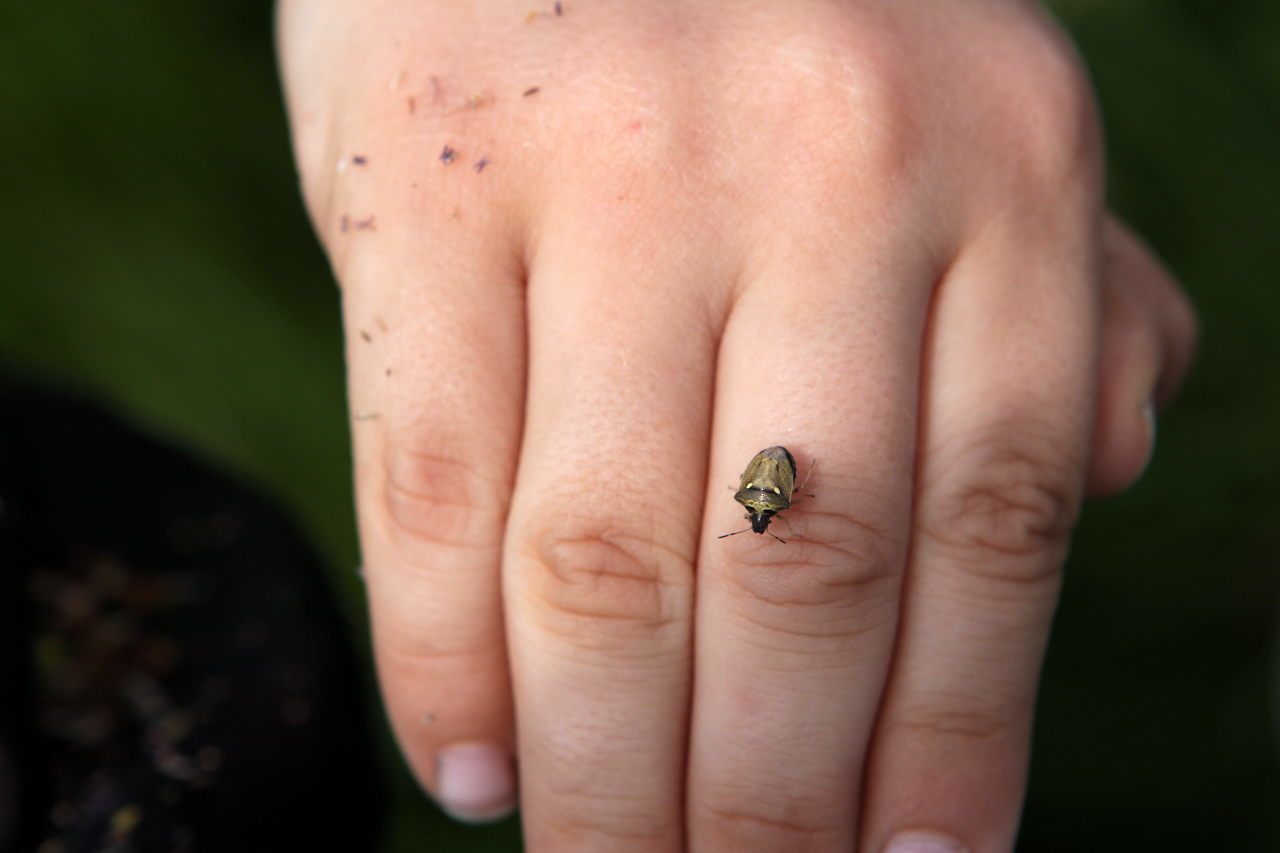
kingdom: Animalia
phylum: Arthropoda
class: Insecta
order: Hemiptera
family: Pentatomidae
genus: Eysarcoris
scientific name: Eysarcoris aeneus
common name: New forest shieldbug
